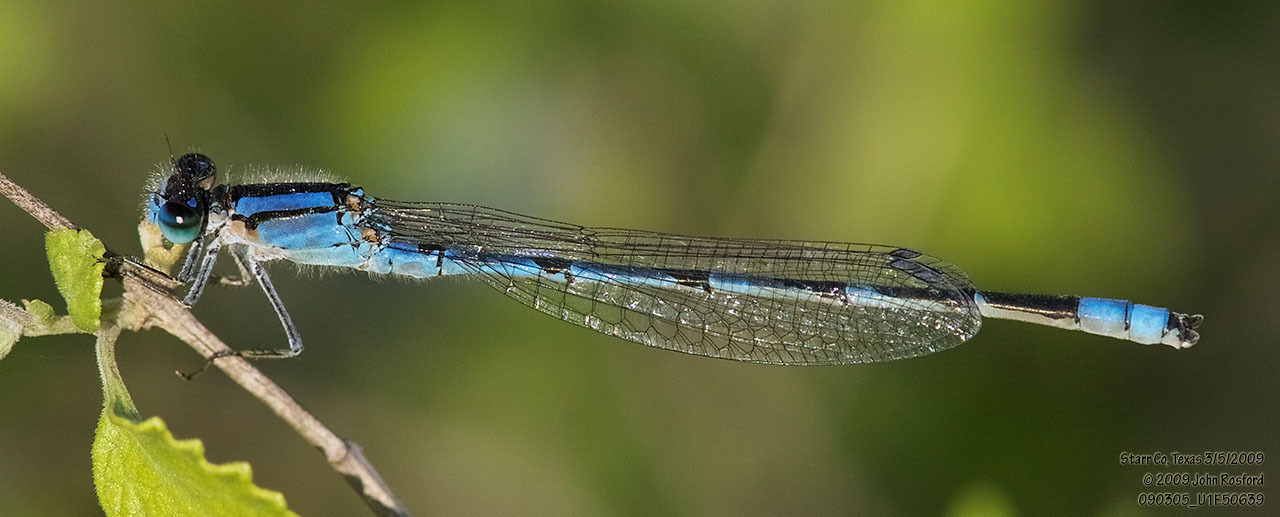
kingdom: Animalia
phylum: Arthropoda
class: Insecta
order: Odonata
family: Coenagrionidae
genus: Enallagma
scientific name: Enallagma civile
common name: Damselfly
